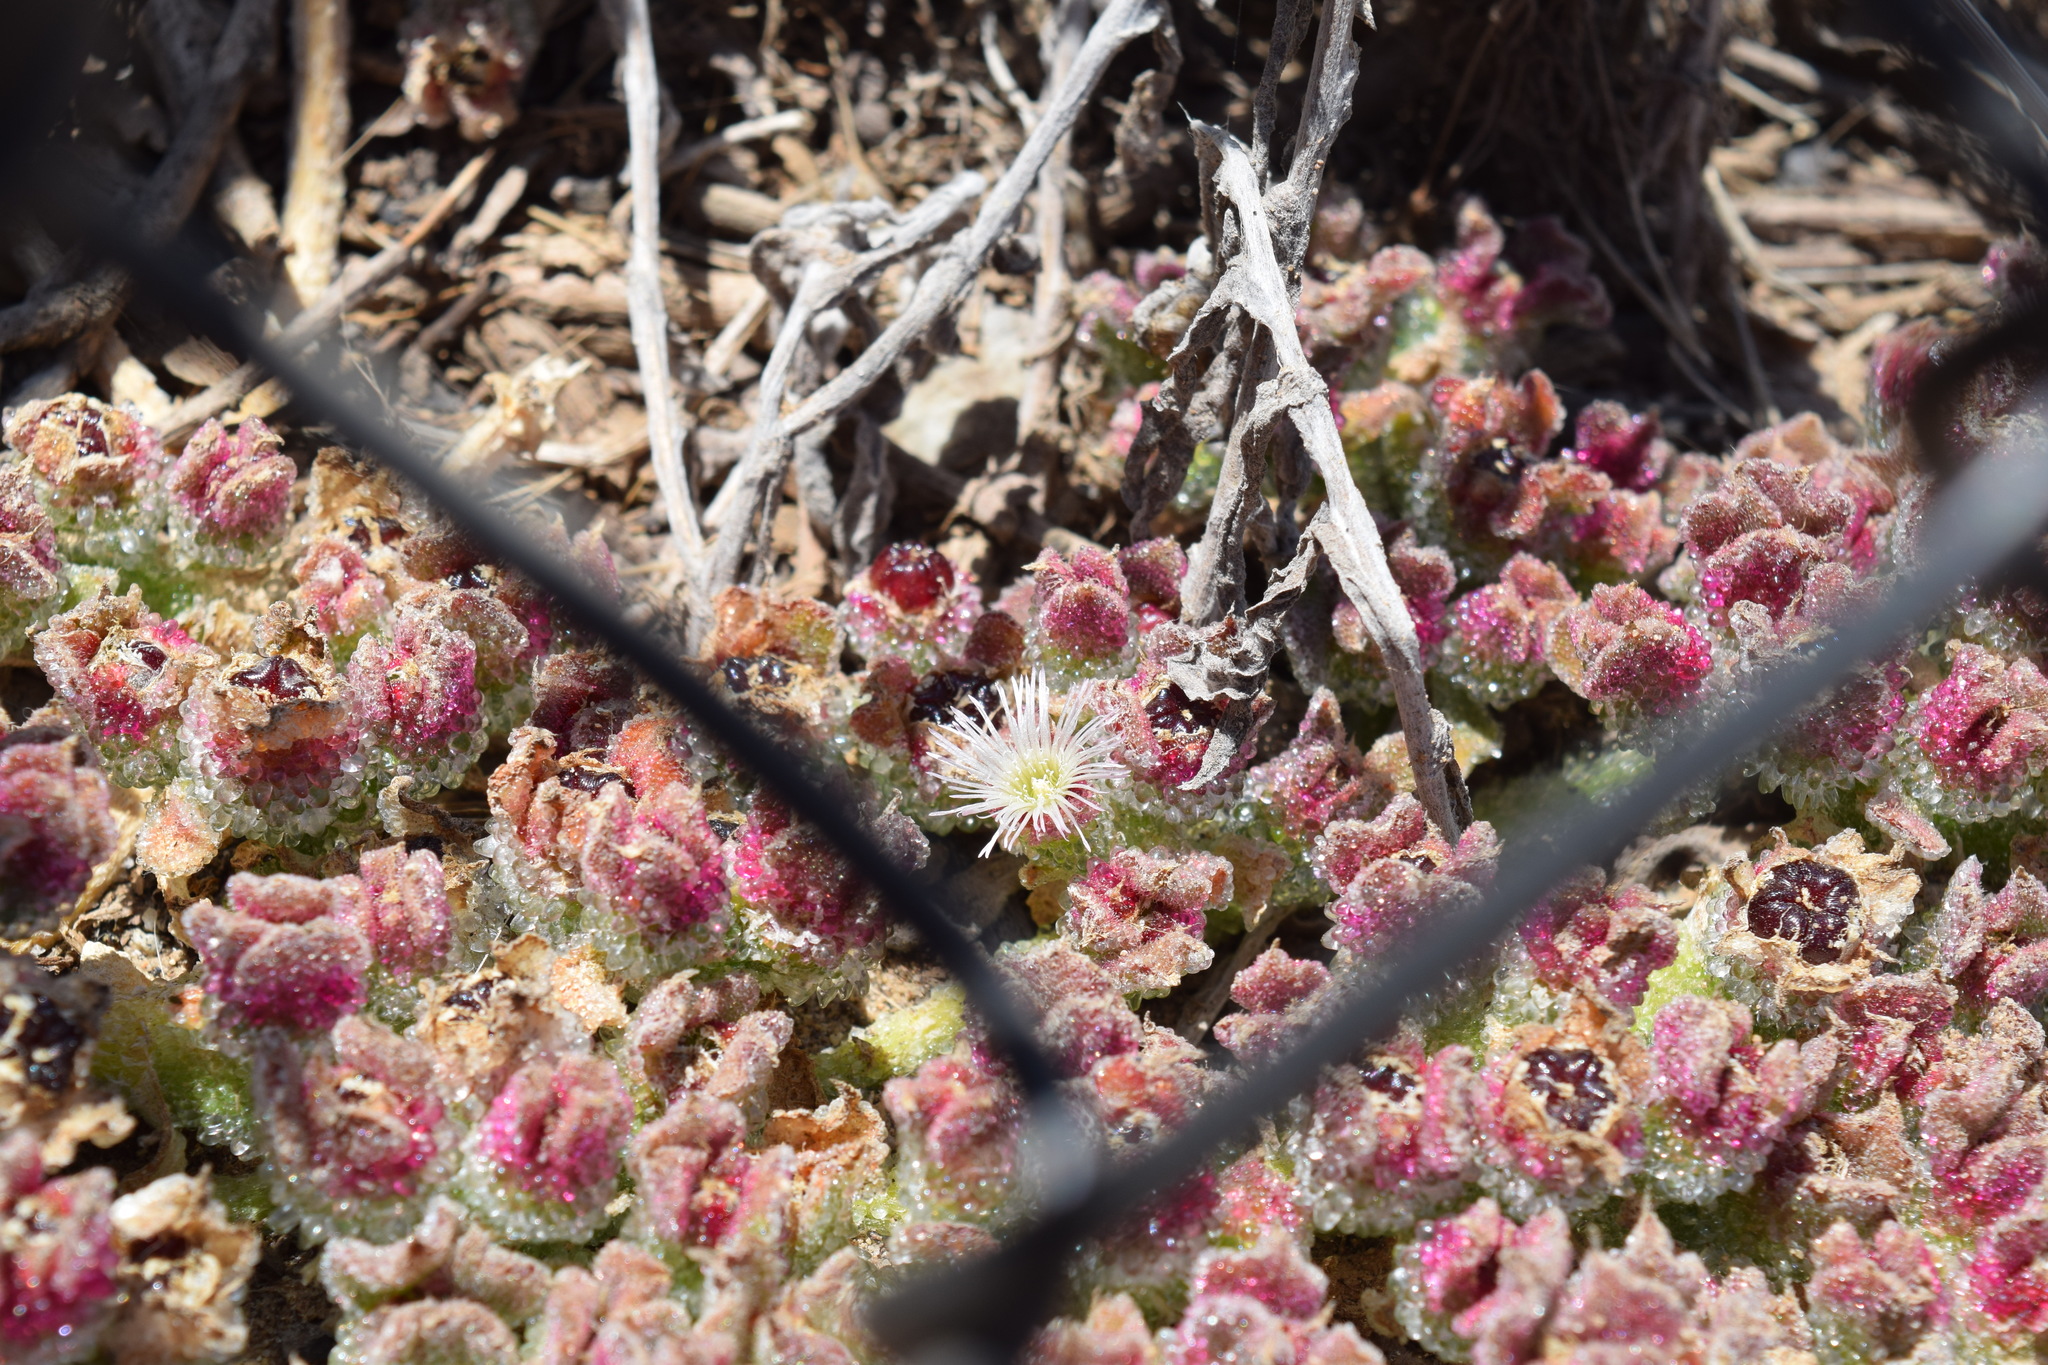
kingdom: Plantae
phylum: Tracheophyta
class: Magnoliopsida
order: Caryophyllales
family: Aizoaceae
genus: Mesembryanthemum
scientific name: Mesembryanthemum crystallinum
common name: Common iceplant
